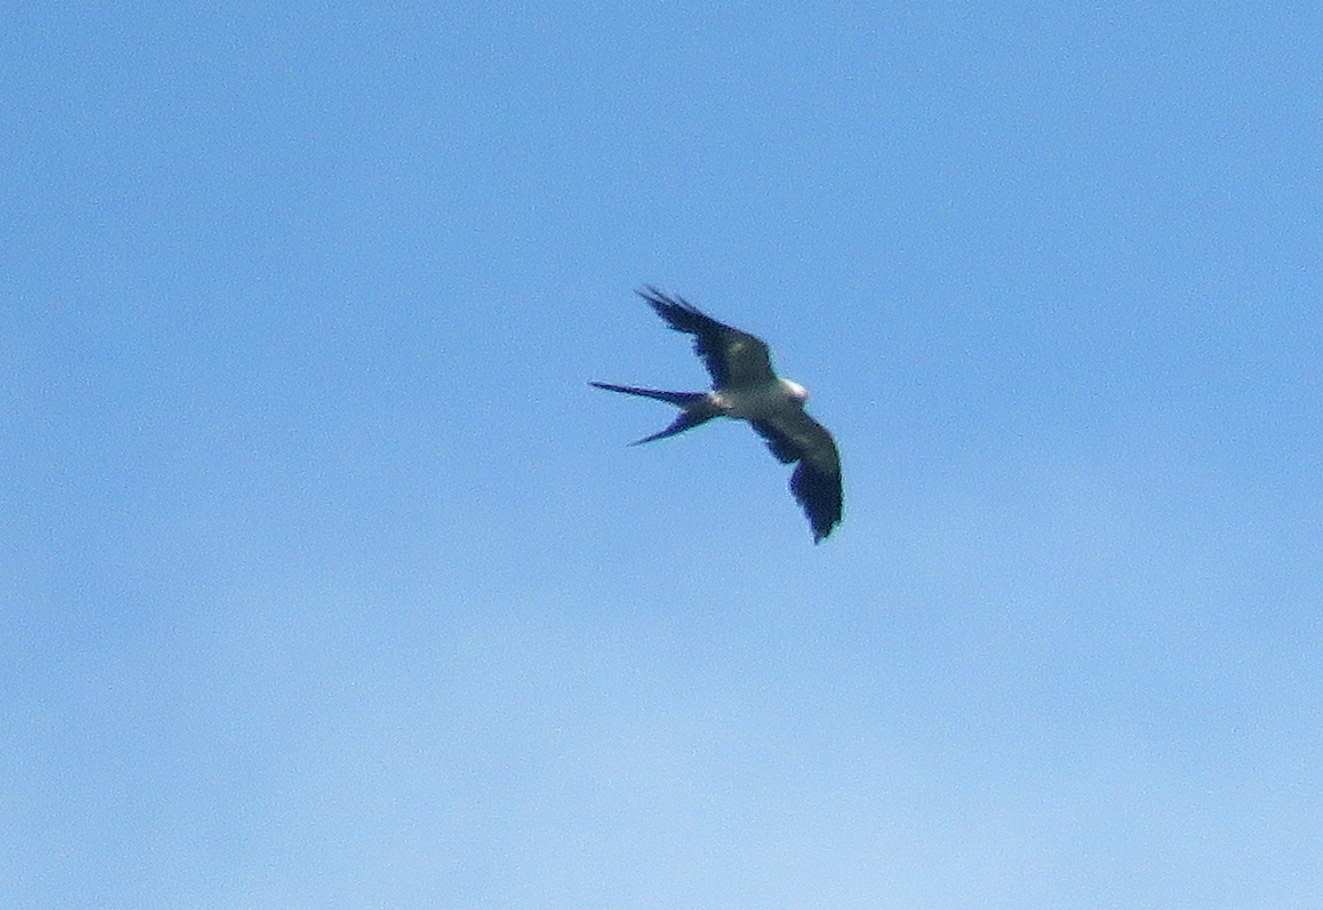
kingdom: Animalia
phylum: Chordata
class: Aves
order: Accipitriformes
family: Accipitridae
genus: Elanoides
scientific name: Elanoides forficatus
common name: Swallow-tailed kite
